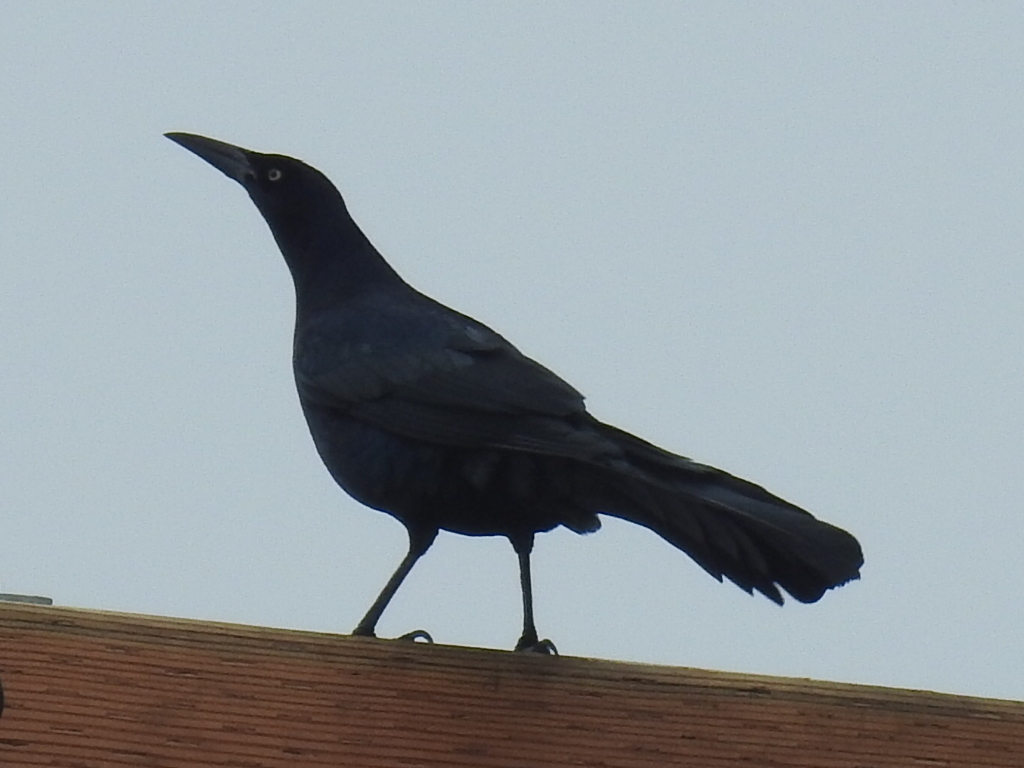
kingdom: Animalia
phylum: Chordata
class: Aves
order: Passeriformes
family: Icteridae
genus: Quiscalus
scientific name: Quiscalus mexicanus
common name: Great-tailed grackle
